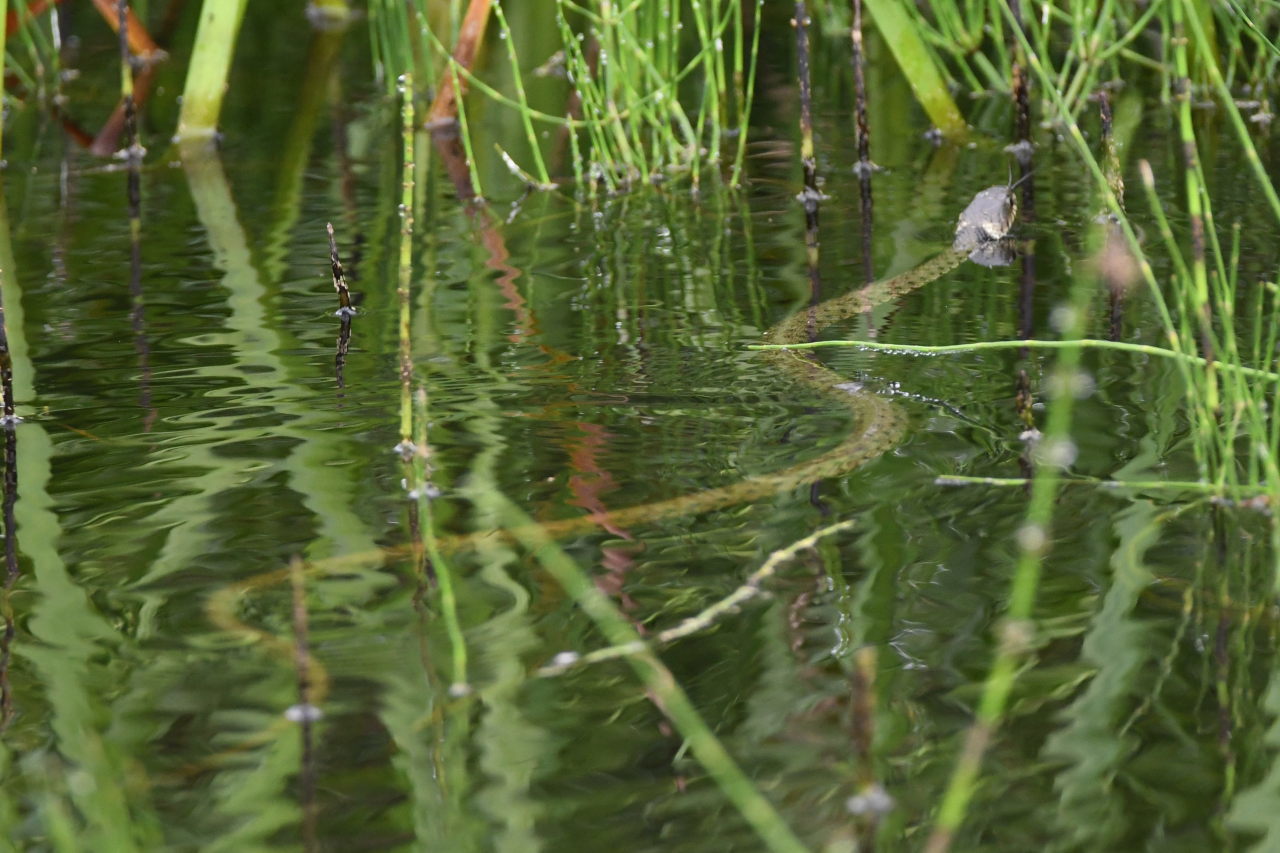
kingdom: Animalia
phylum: Chordata
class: Squamata
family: Colubridae
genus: Natrix
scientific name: Natrix helvetica
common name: Banded grass snake
